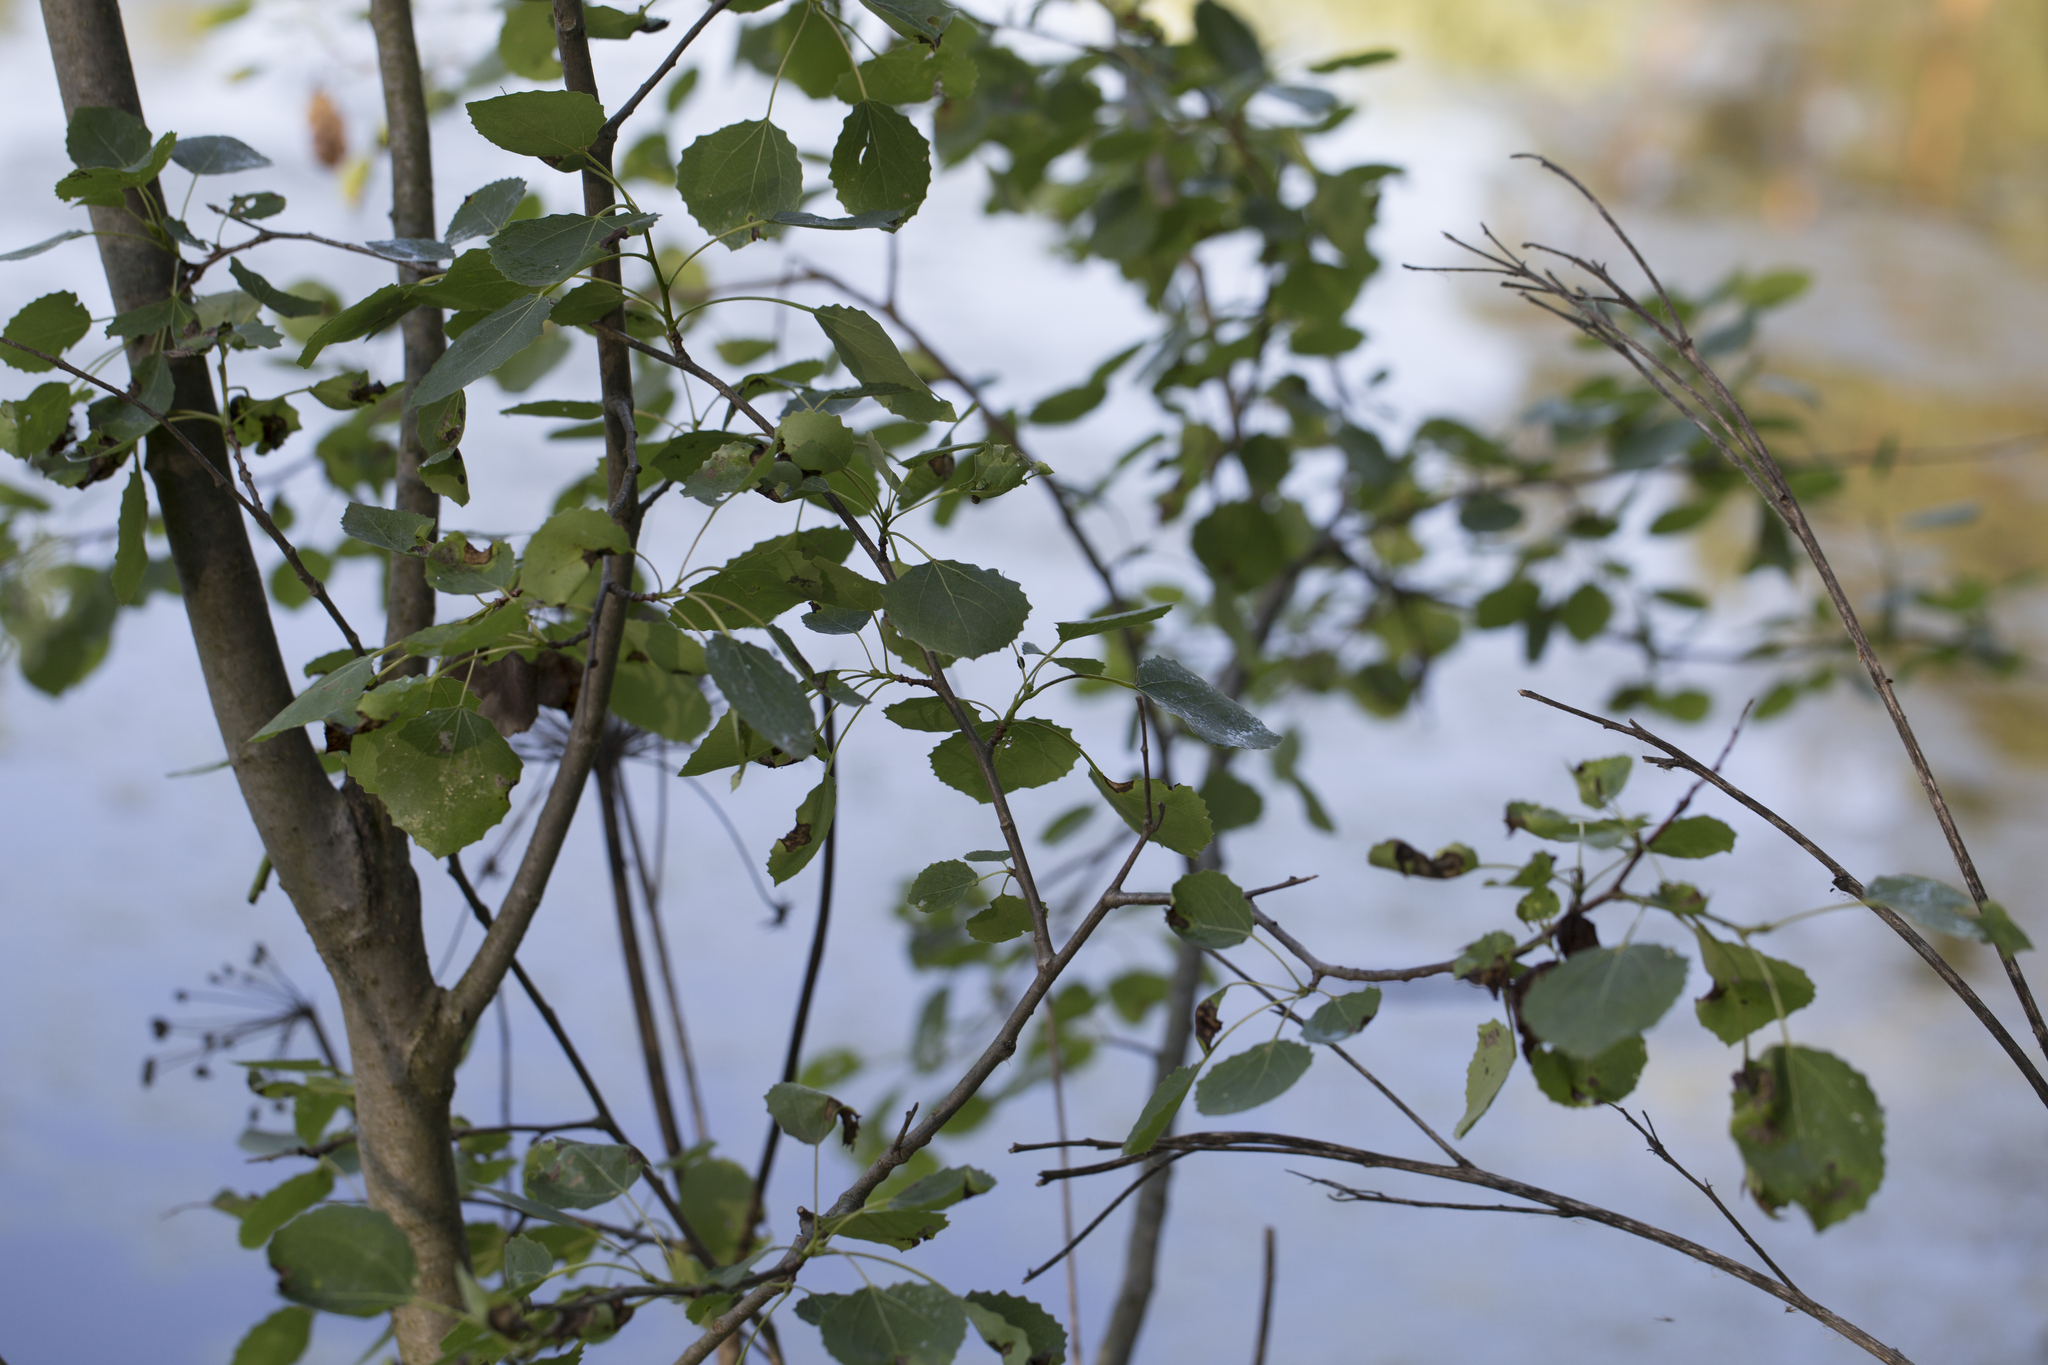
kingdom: Plantae
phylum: Tracheophyta
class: Magnoliopsida
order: Malpighiales
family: Salicaceae
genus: Populus
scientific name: Populus tremula
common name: European aspen
